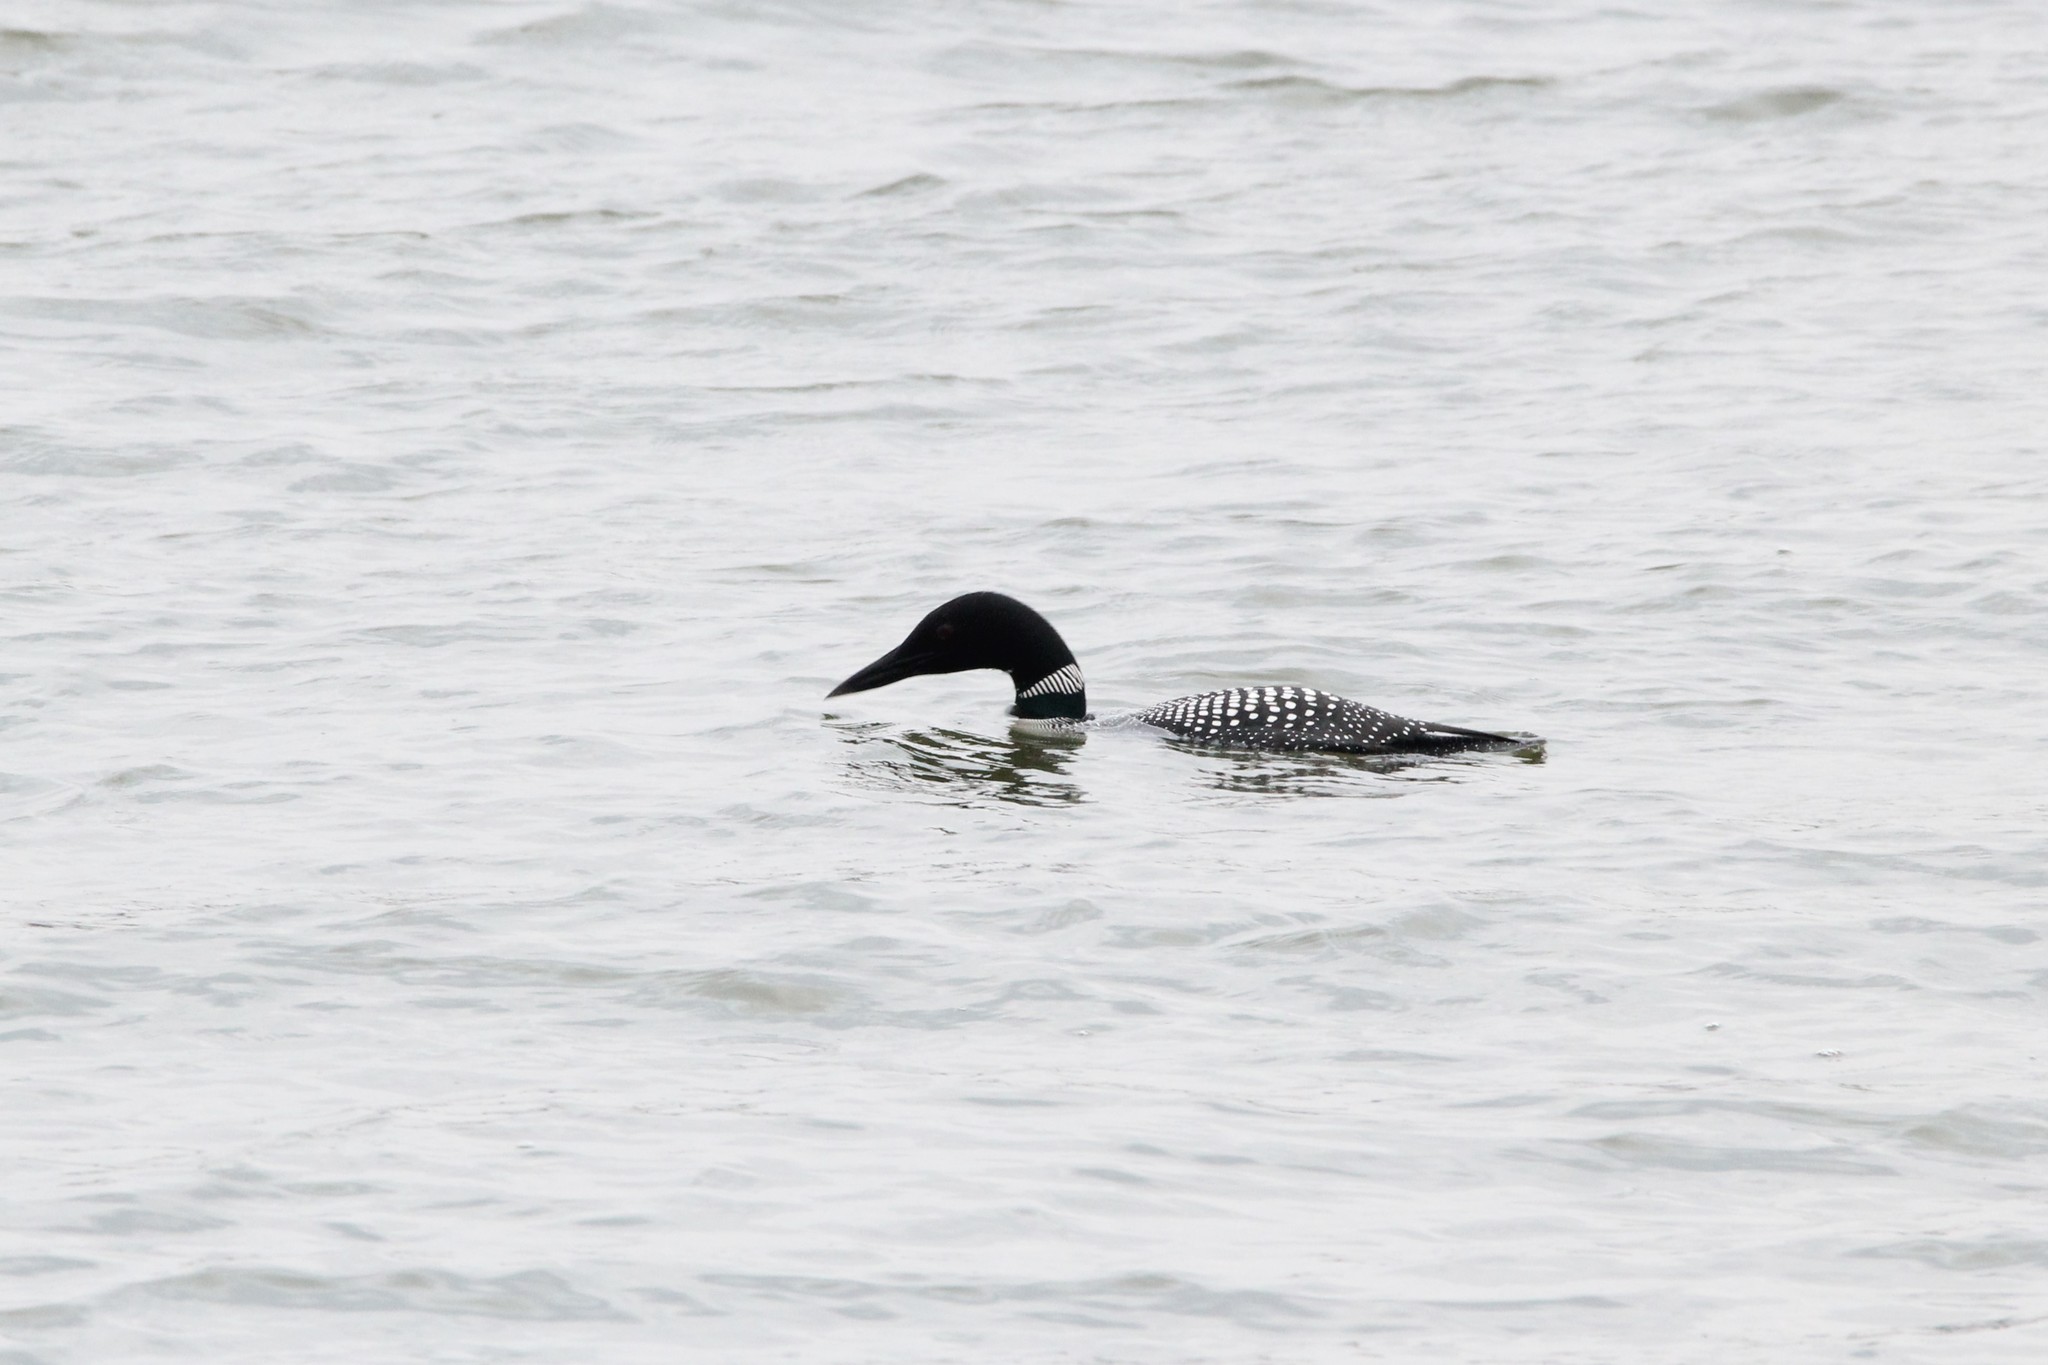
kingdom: Animalia
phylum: Chordata
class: Aves
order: Gaviiformes
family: Gaviidae
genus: Gavia
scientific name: Gavia immer
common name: Common loon
